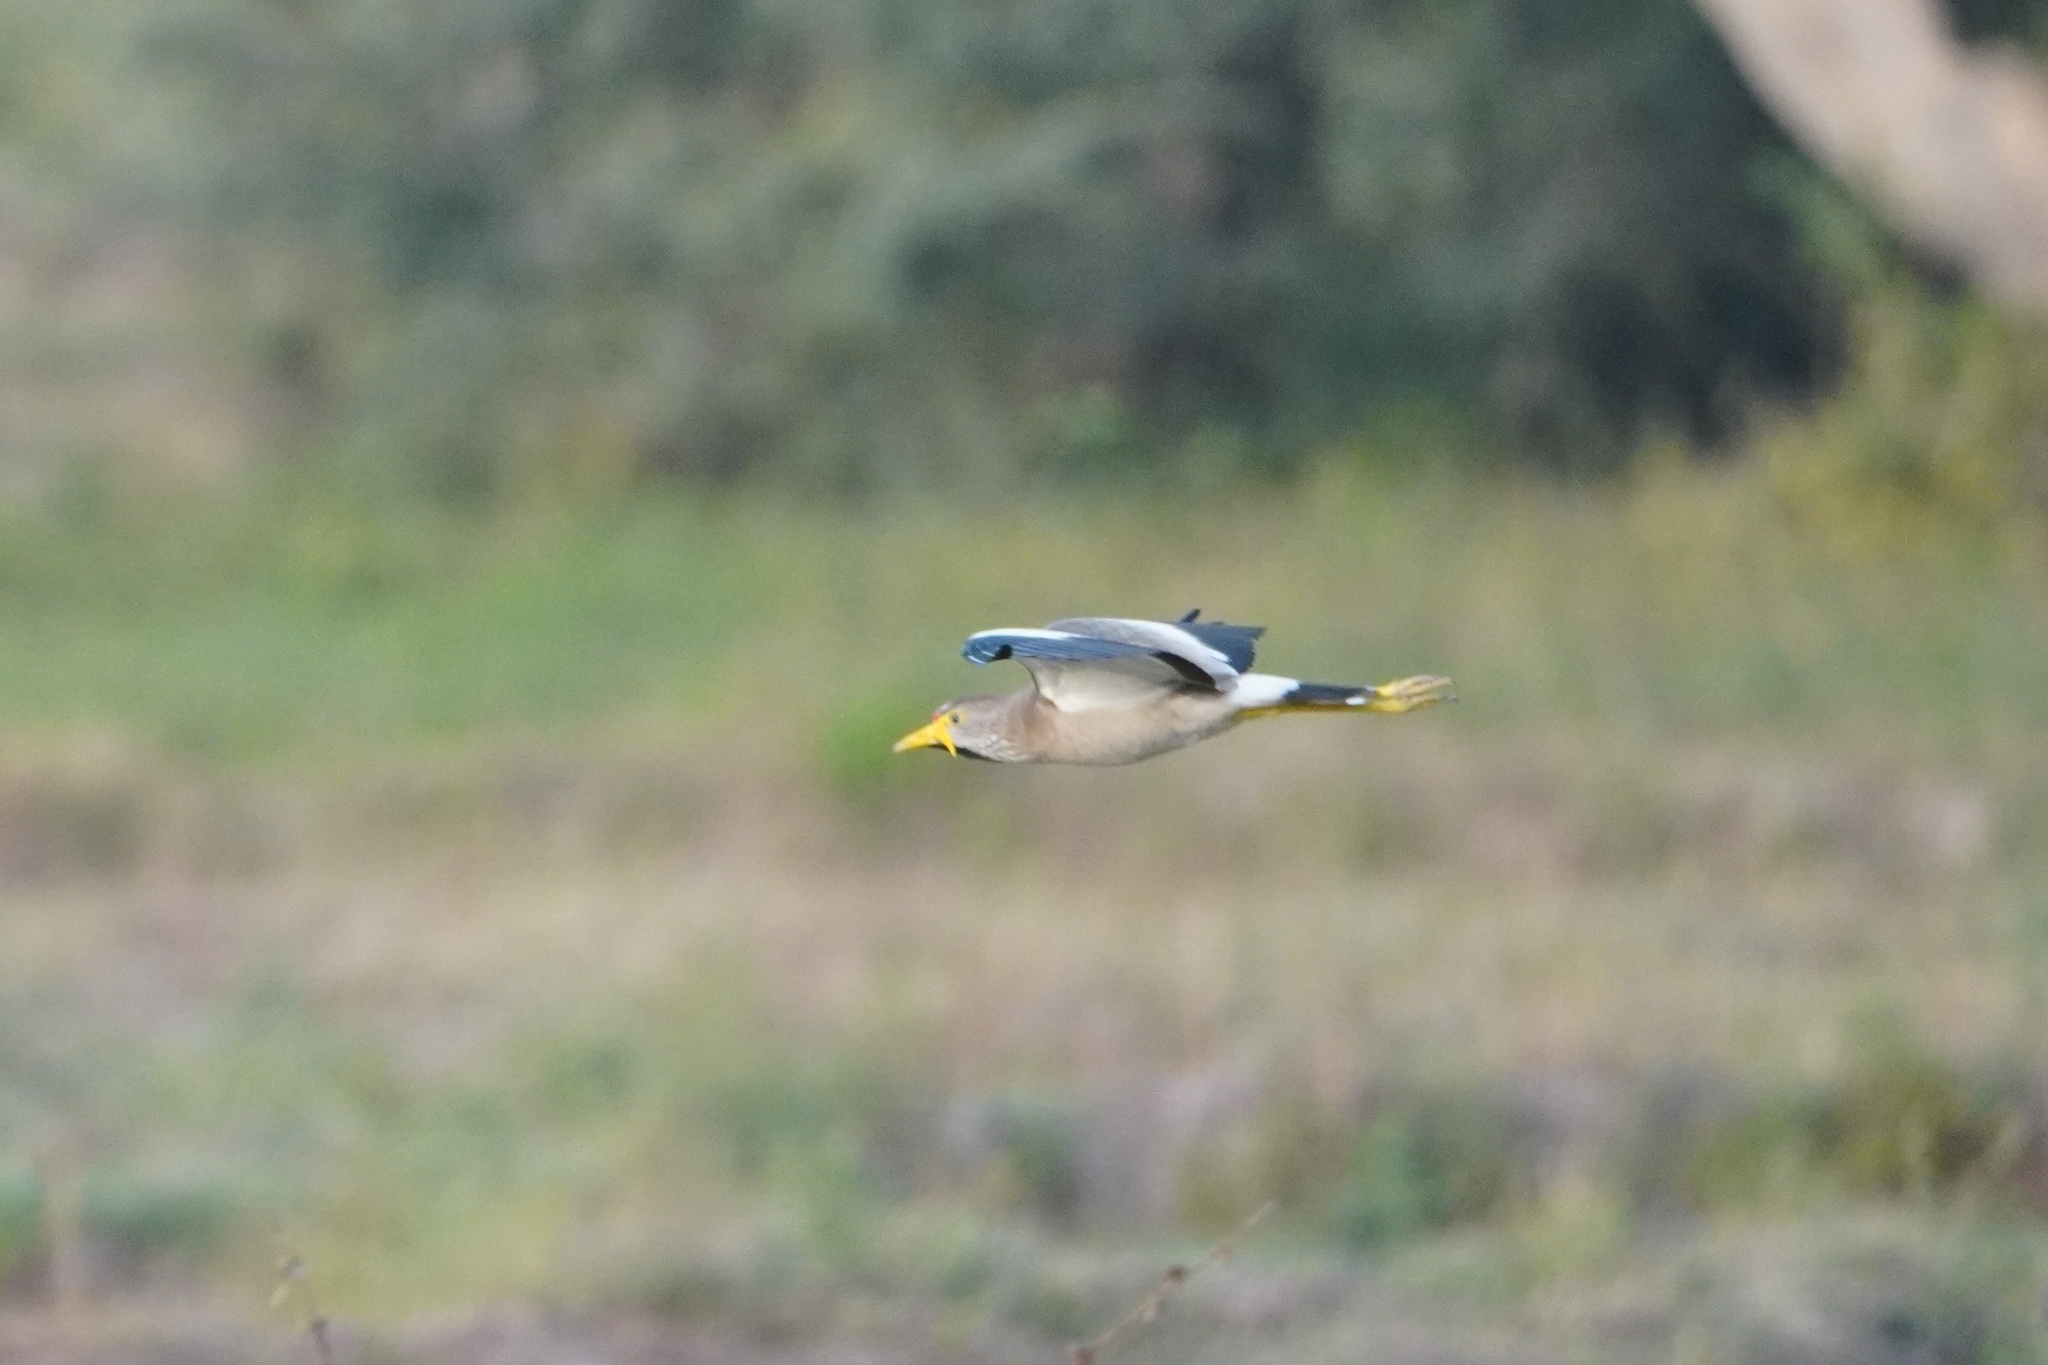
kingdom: Animalia
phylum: Chordata
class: Aves
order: Charadriiformes
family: Charadriidae
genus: Vanellus
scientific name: Vanellus senegallus
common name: African wattled lapwing
